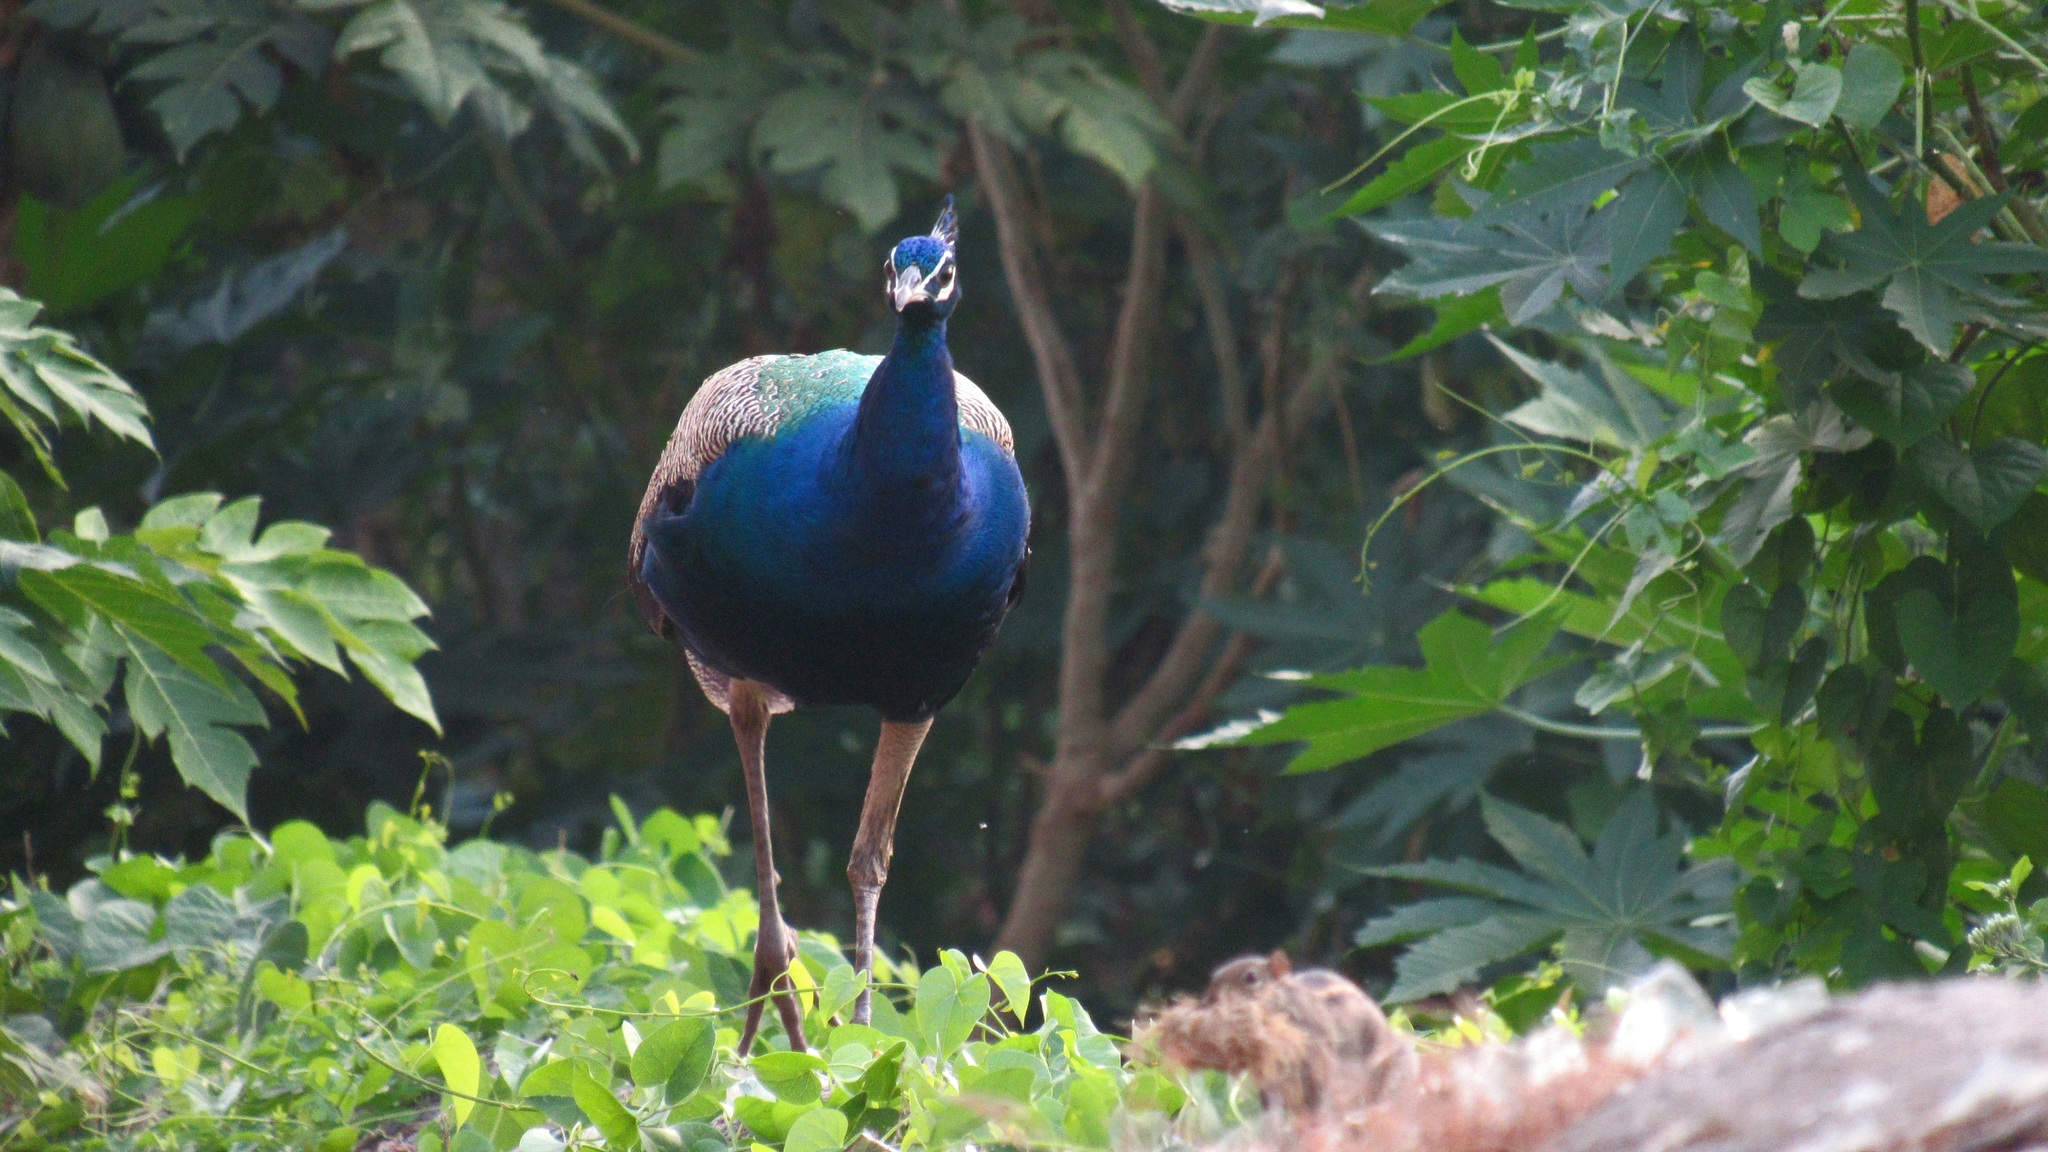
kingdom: Animalia
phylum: Chordata
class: Aves
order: Galliformes
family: Phasianidae
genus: Pavo
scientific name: Pavo cristatus
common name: Indian peafowl
